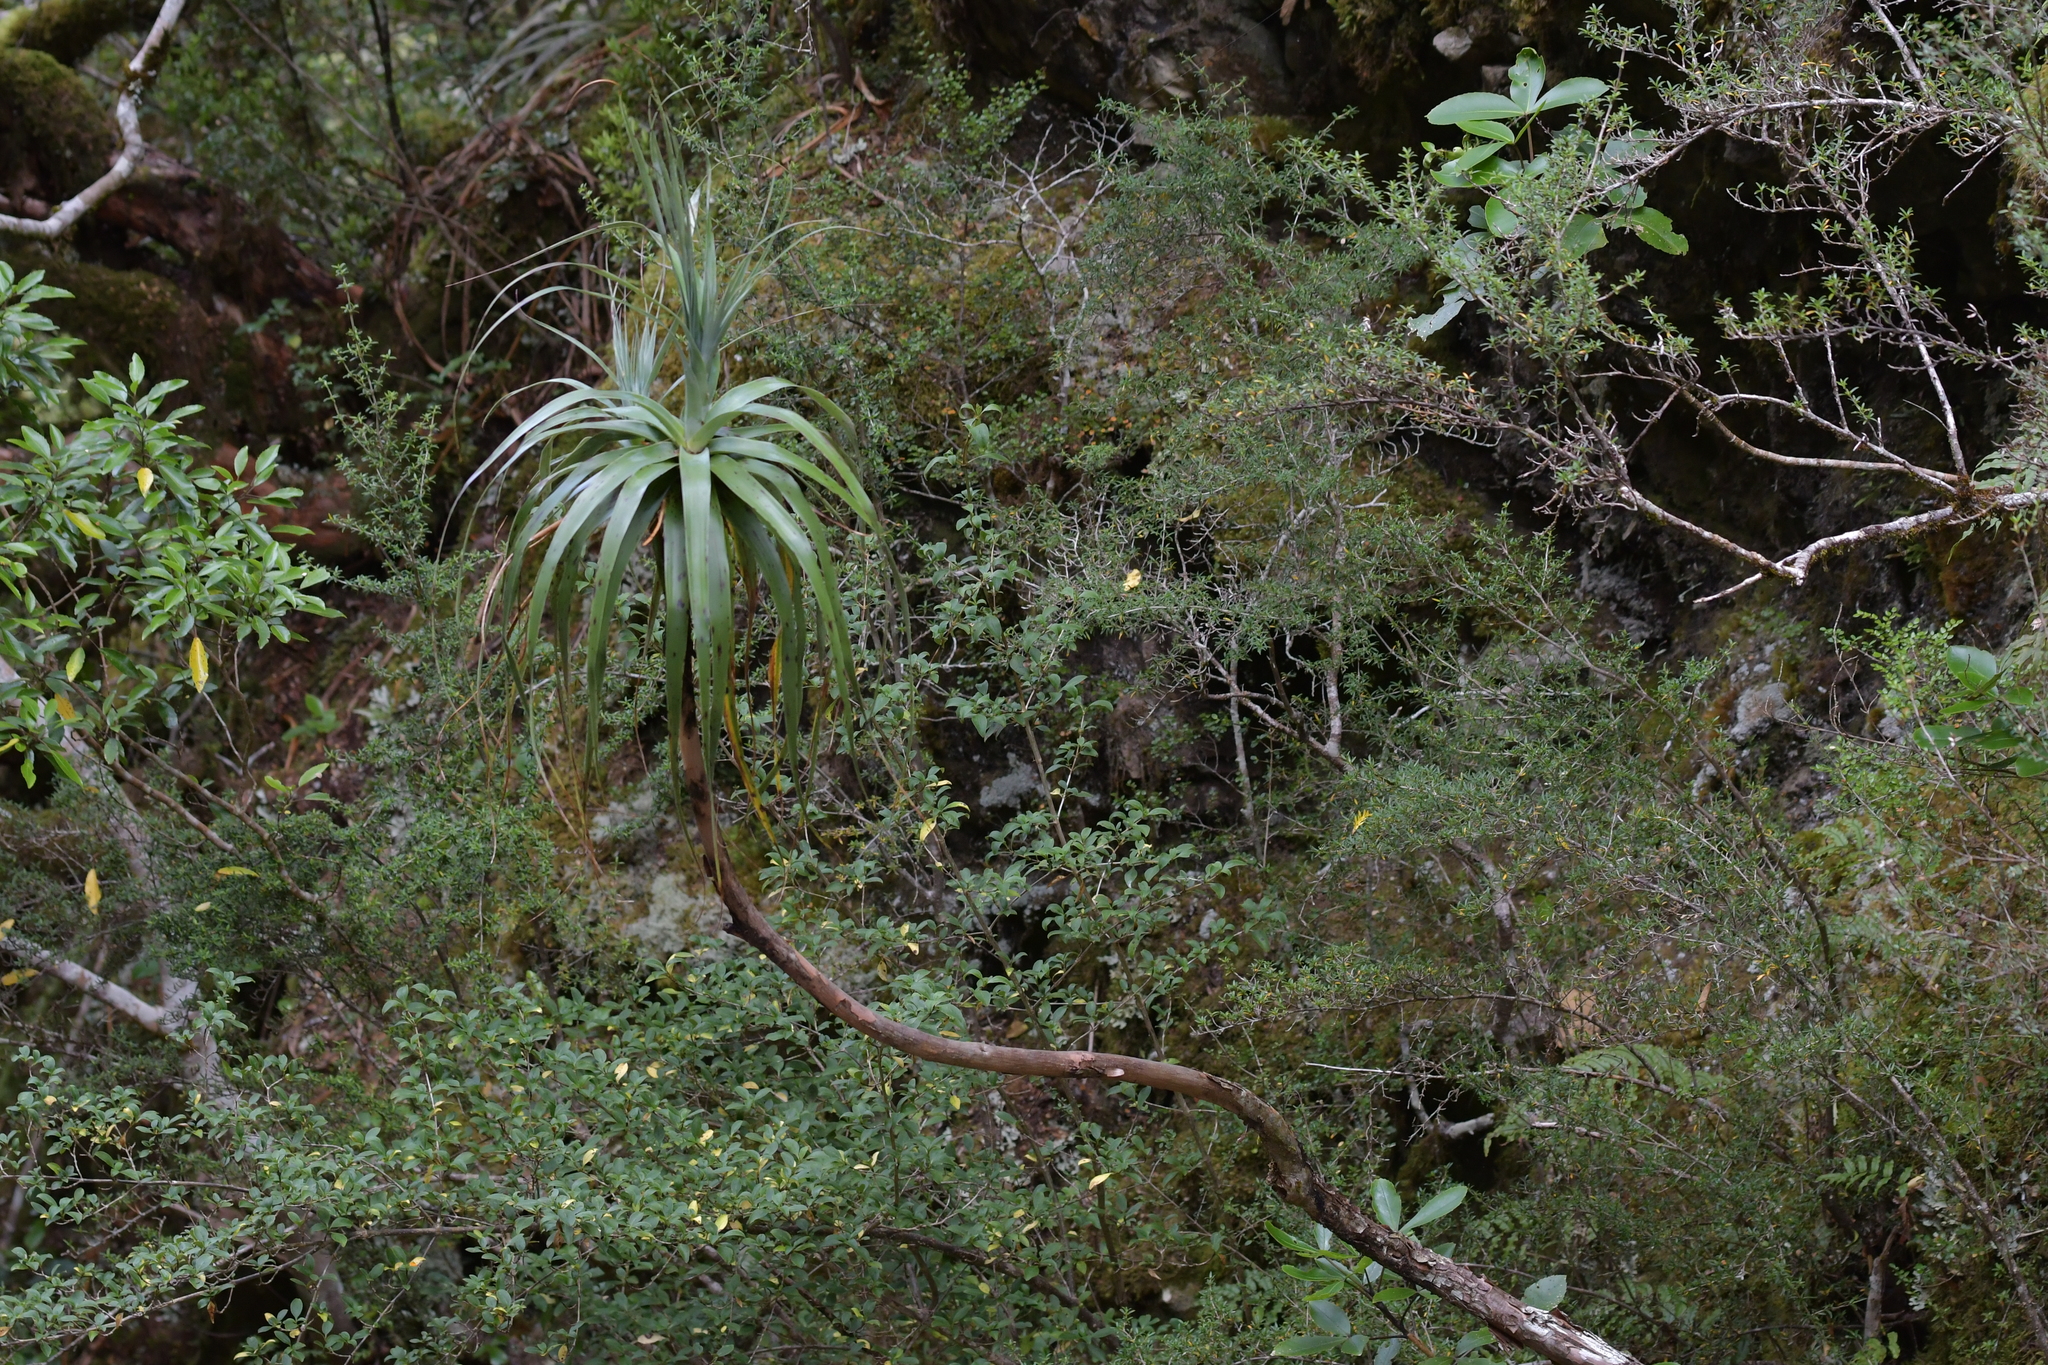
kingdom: Plantae
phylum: Tracheophyta
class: Magnoliopsida
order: Ericales
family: Ericaceae
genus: Dracophyllum
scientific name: Dracophyllum traversii
